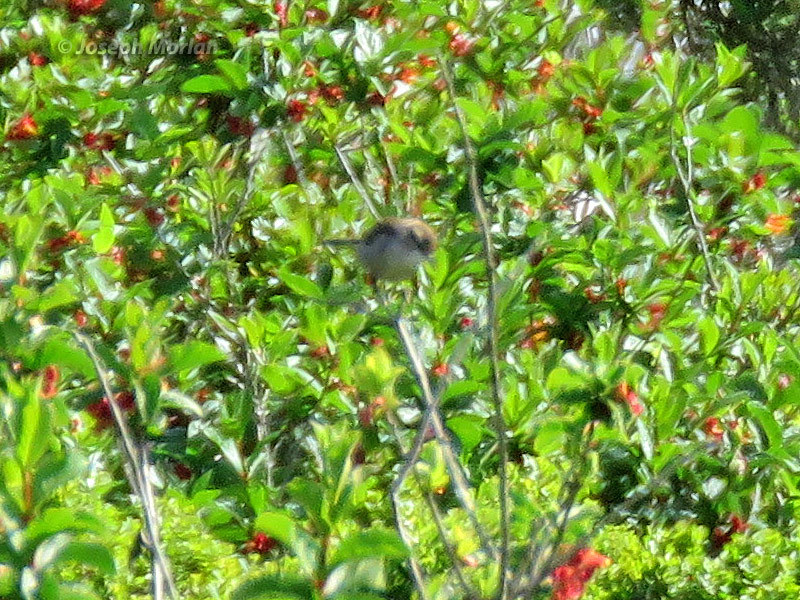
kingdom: Animalia
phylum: Chordata
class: Aves
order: Passeriformes
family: Troglodytidae
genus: Thryomanes
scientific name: Thryomanes bewickii
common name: Bewick's wren
